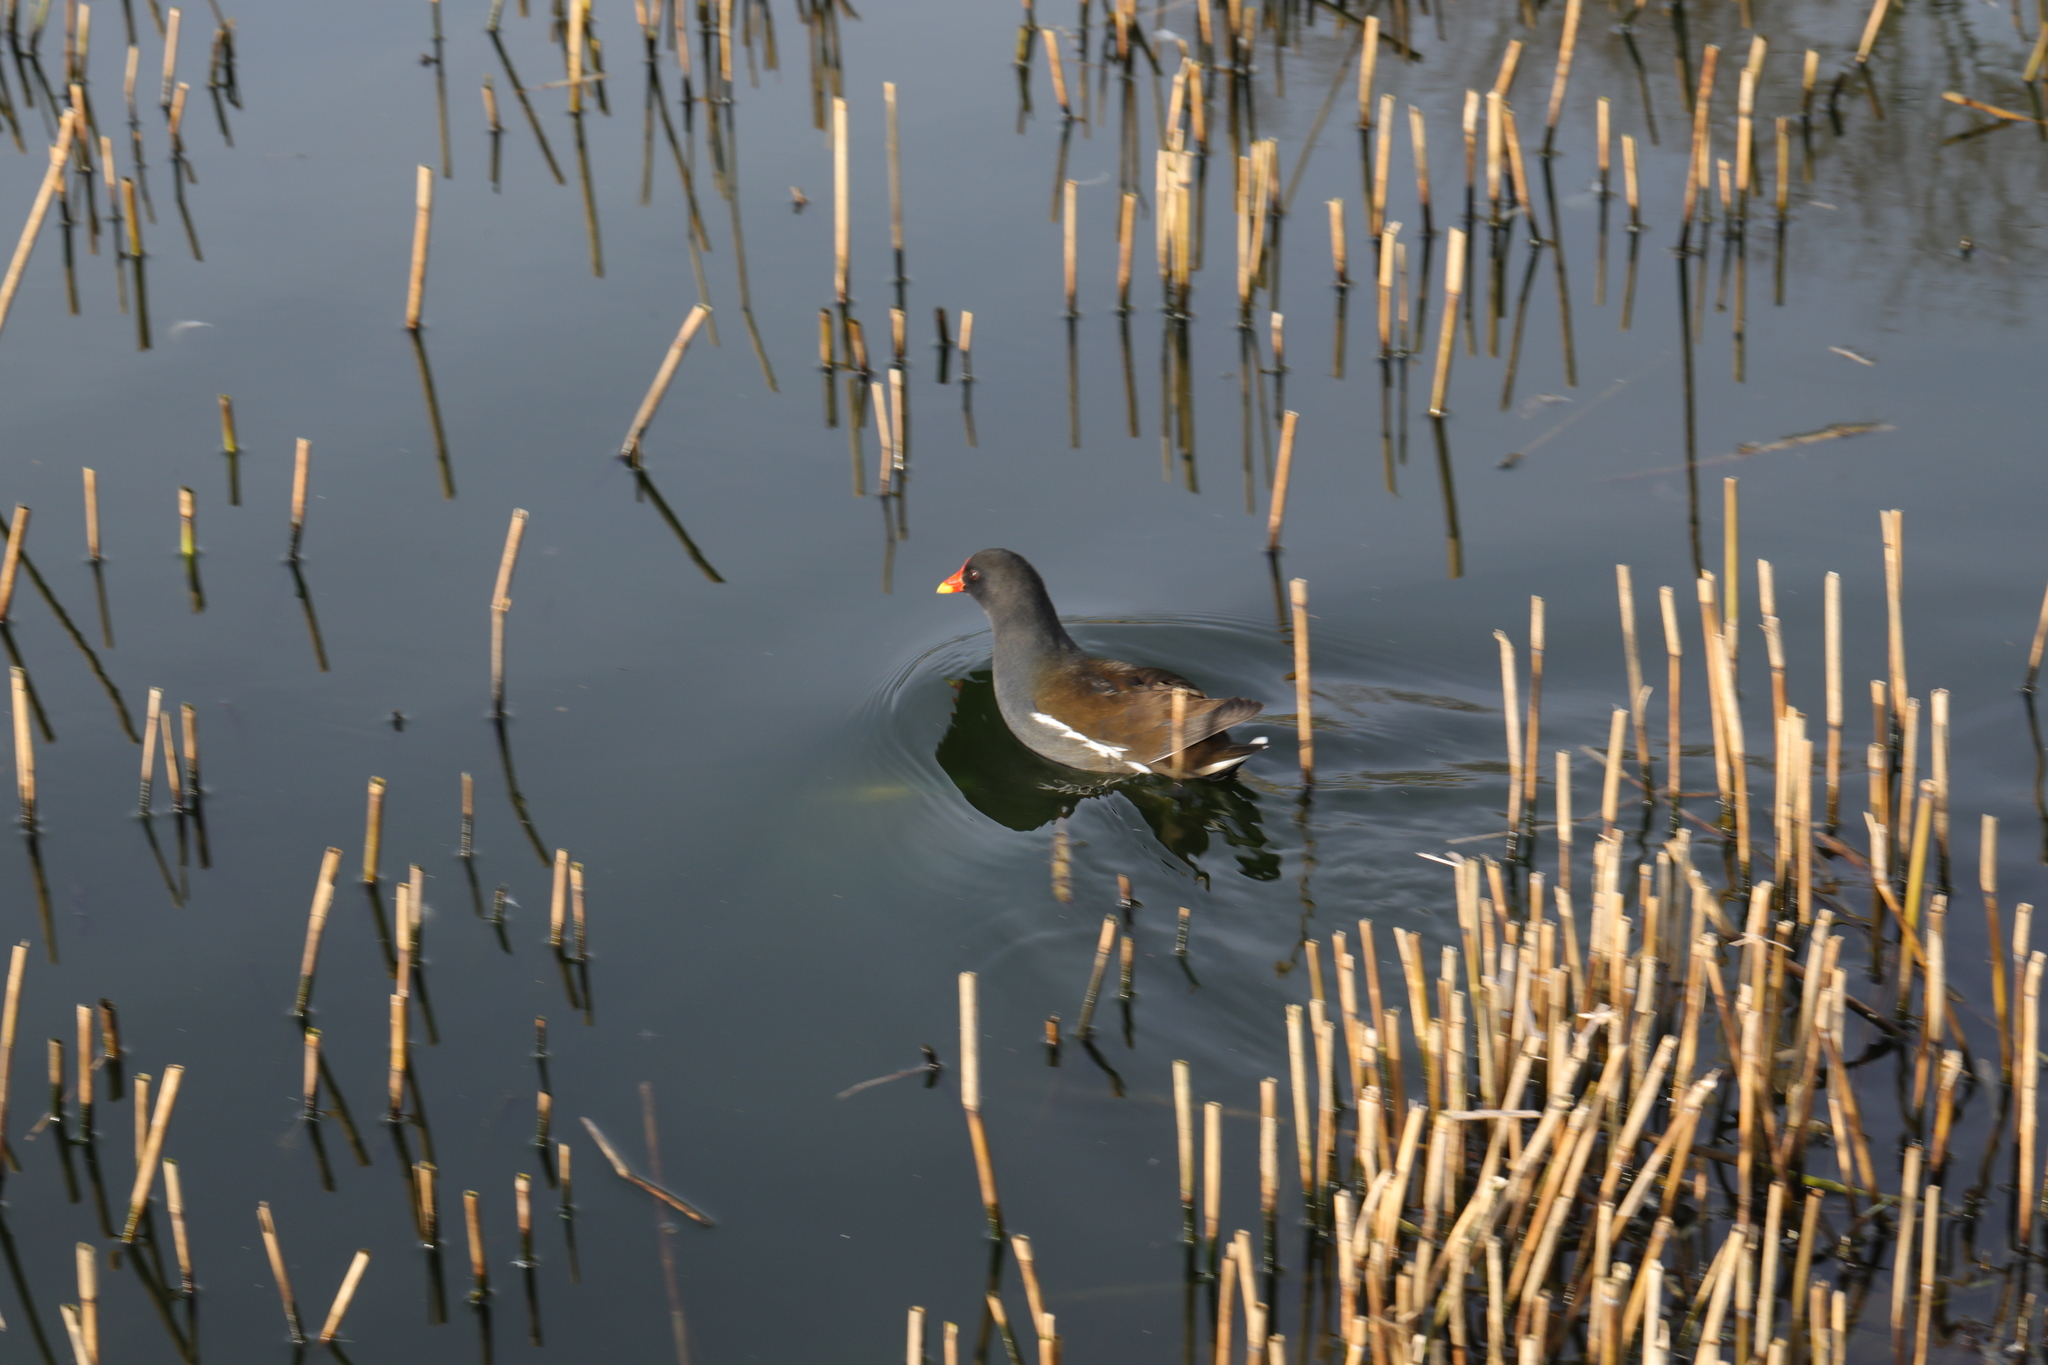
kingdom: Animalia
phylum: Chordata
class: Aves
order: Gruiformes
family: Rallidae
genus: Gallinula
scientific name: Gallinula chloropus
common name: Common moorhen
